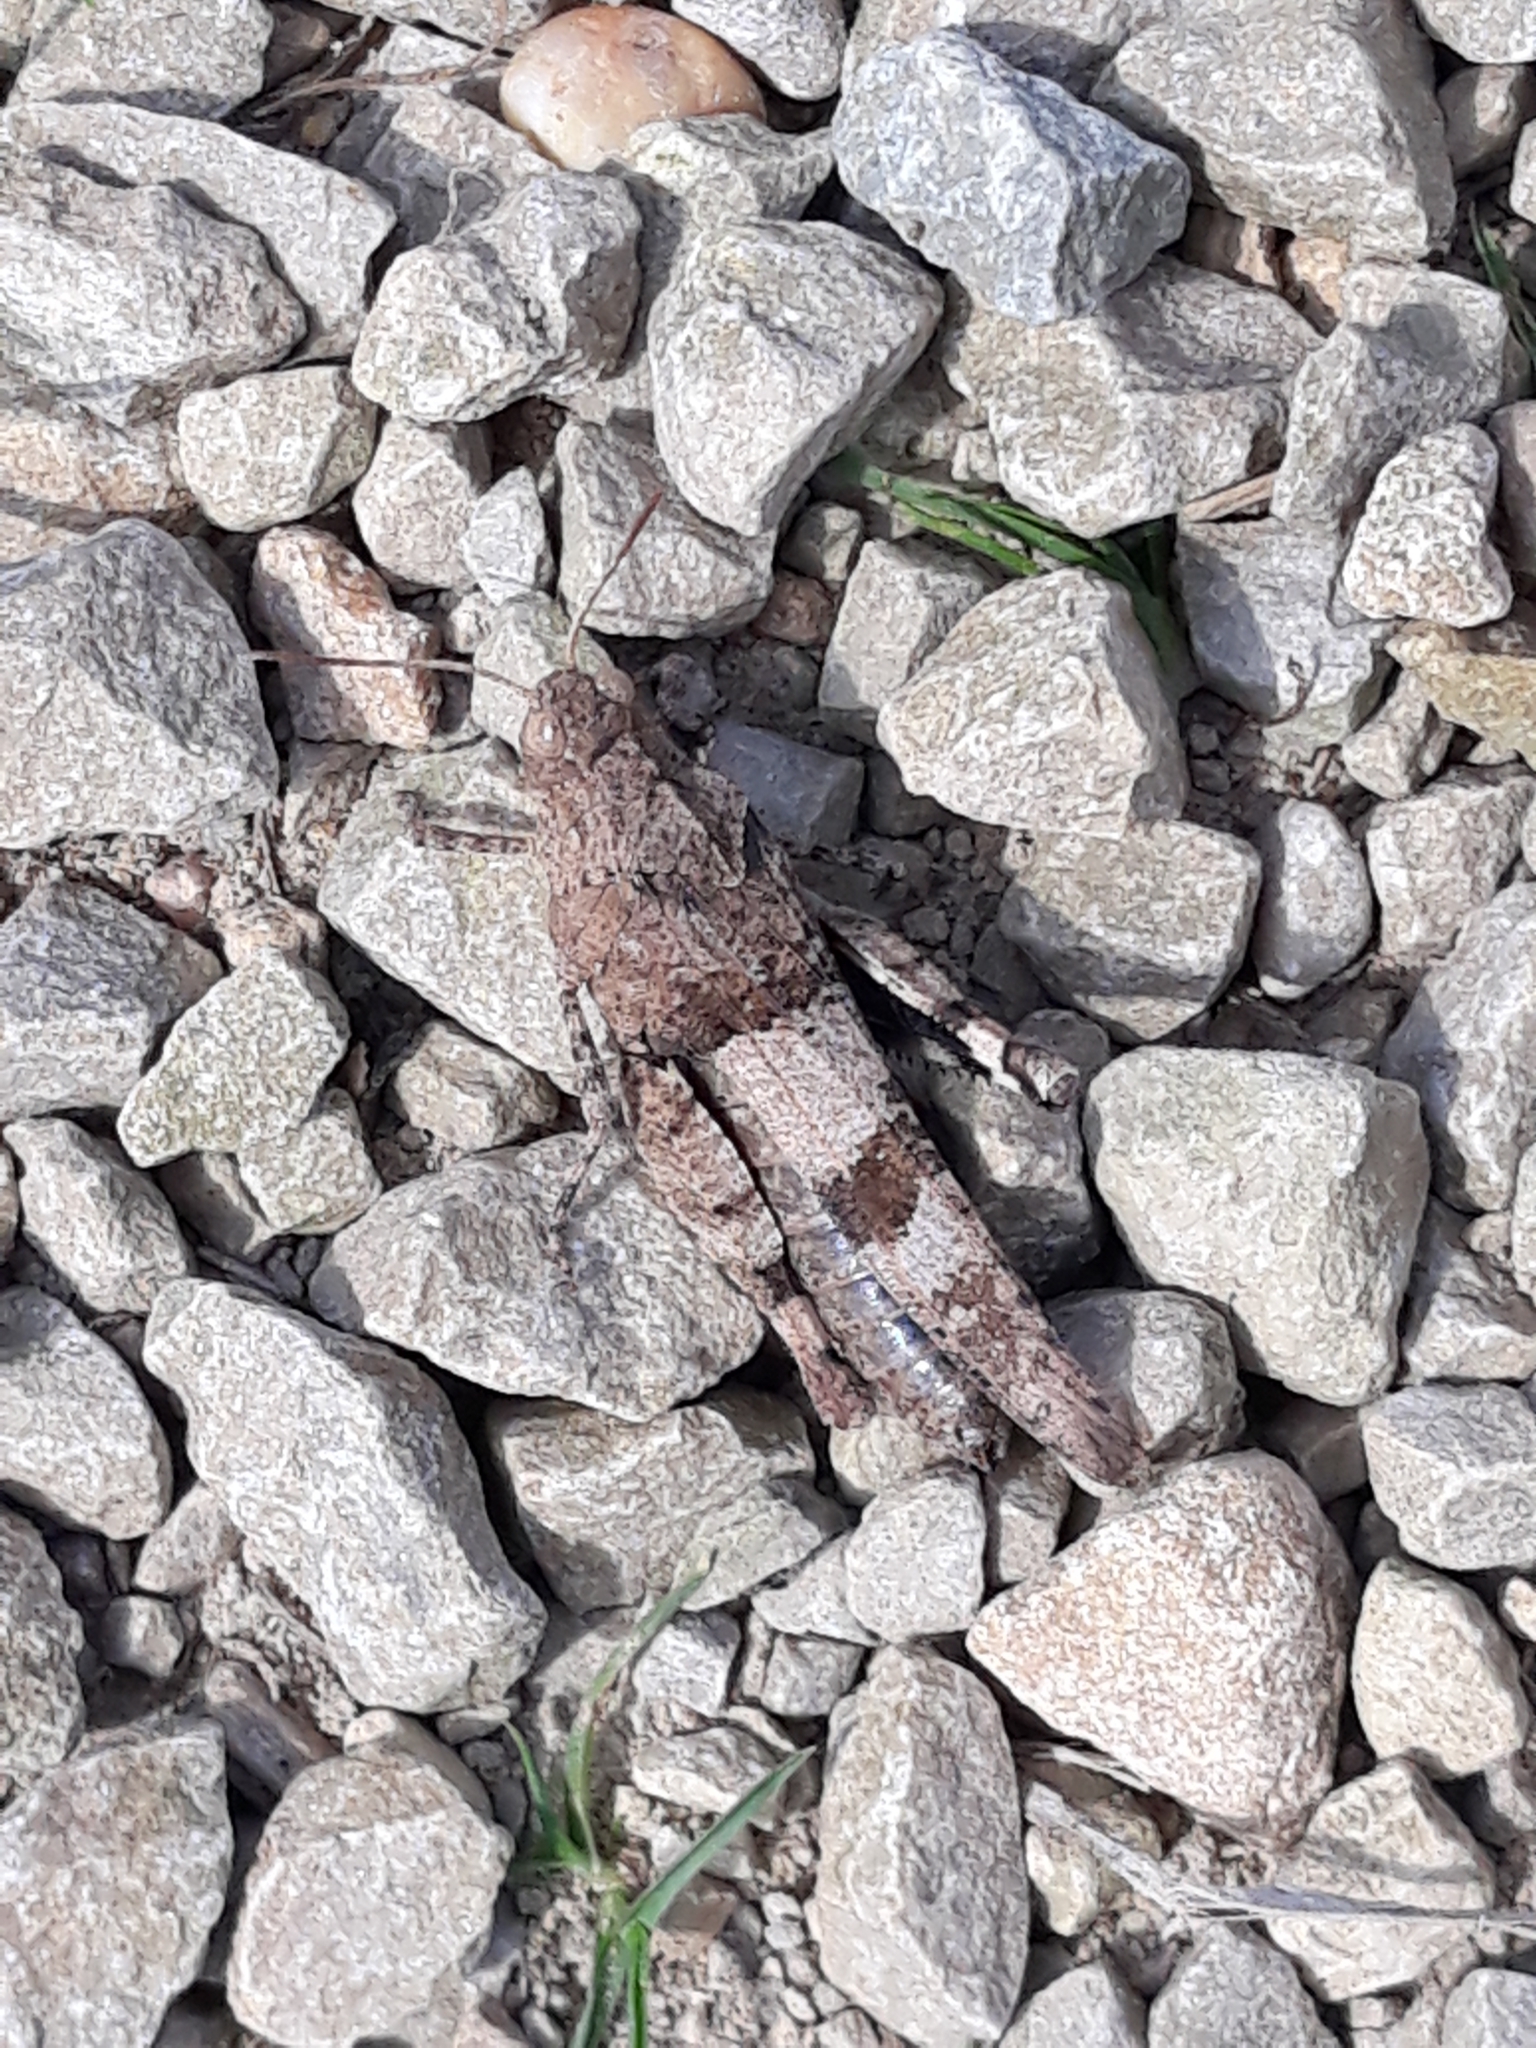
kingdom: Animalia
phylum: Arthropoda
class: Insecta
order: Orthoptera
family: Acrididae
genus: Oedipoda
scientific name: Oedipoda caerulescens
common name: Blue-winged grasshopper
